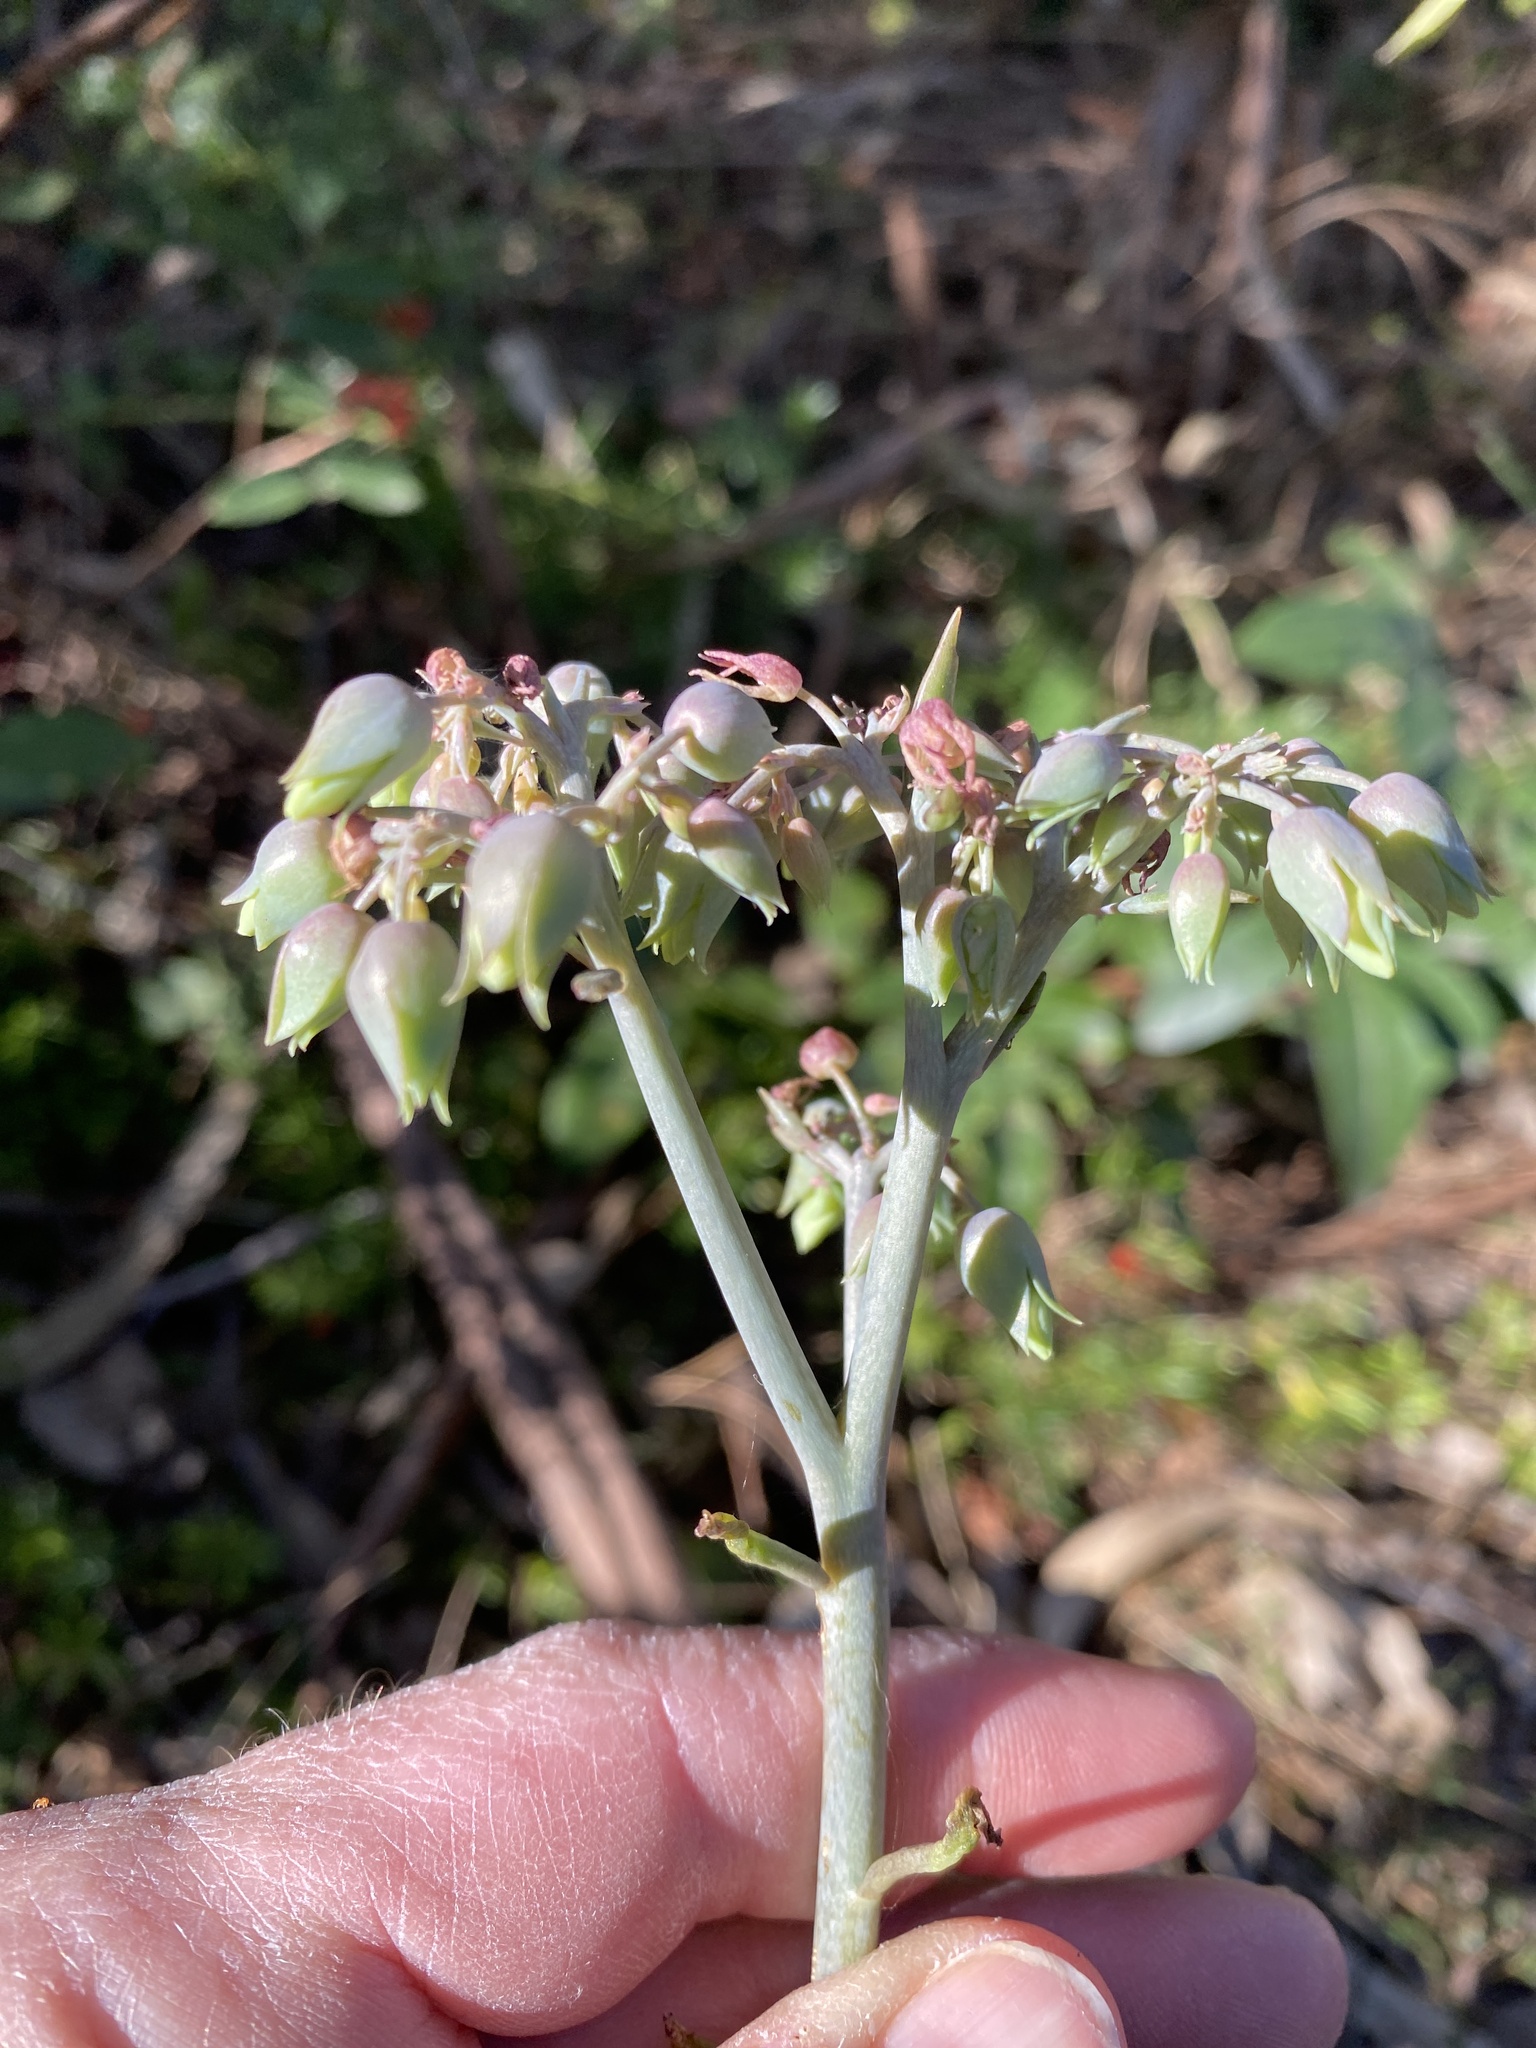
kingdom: Plantae
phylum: Tracheophyta
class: Magnoliopsida
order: Saxifragales
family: Crassulaceae
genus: Kalanchoe
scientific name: Kalanchoe houghtonii
